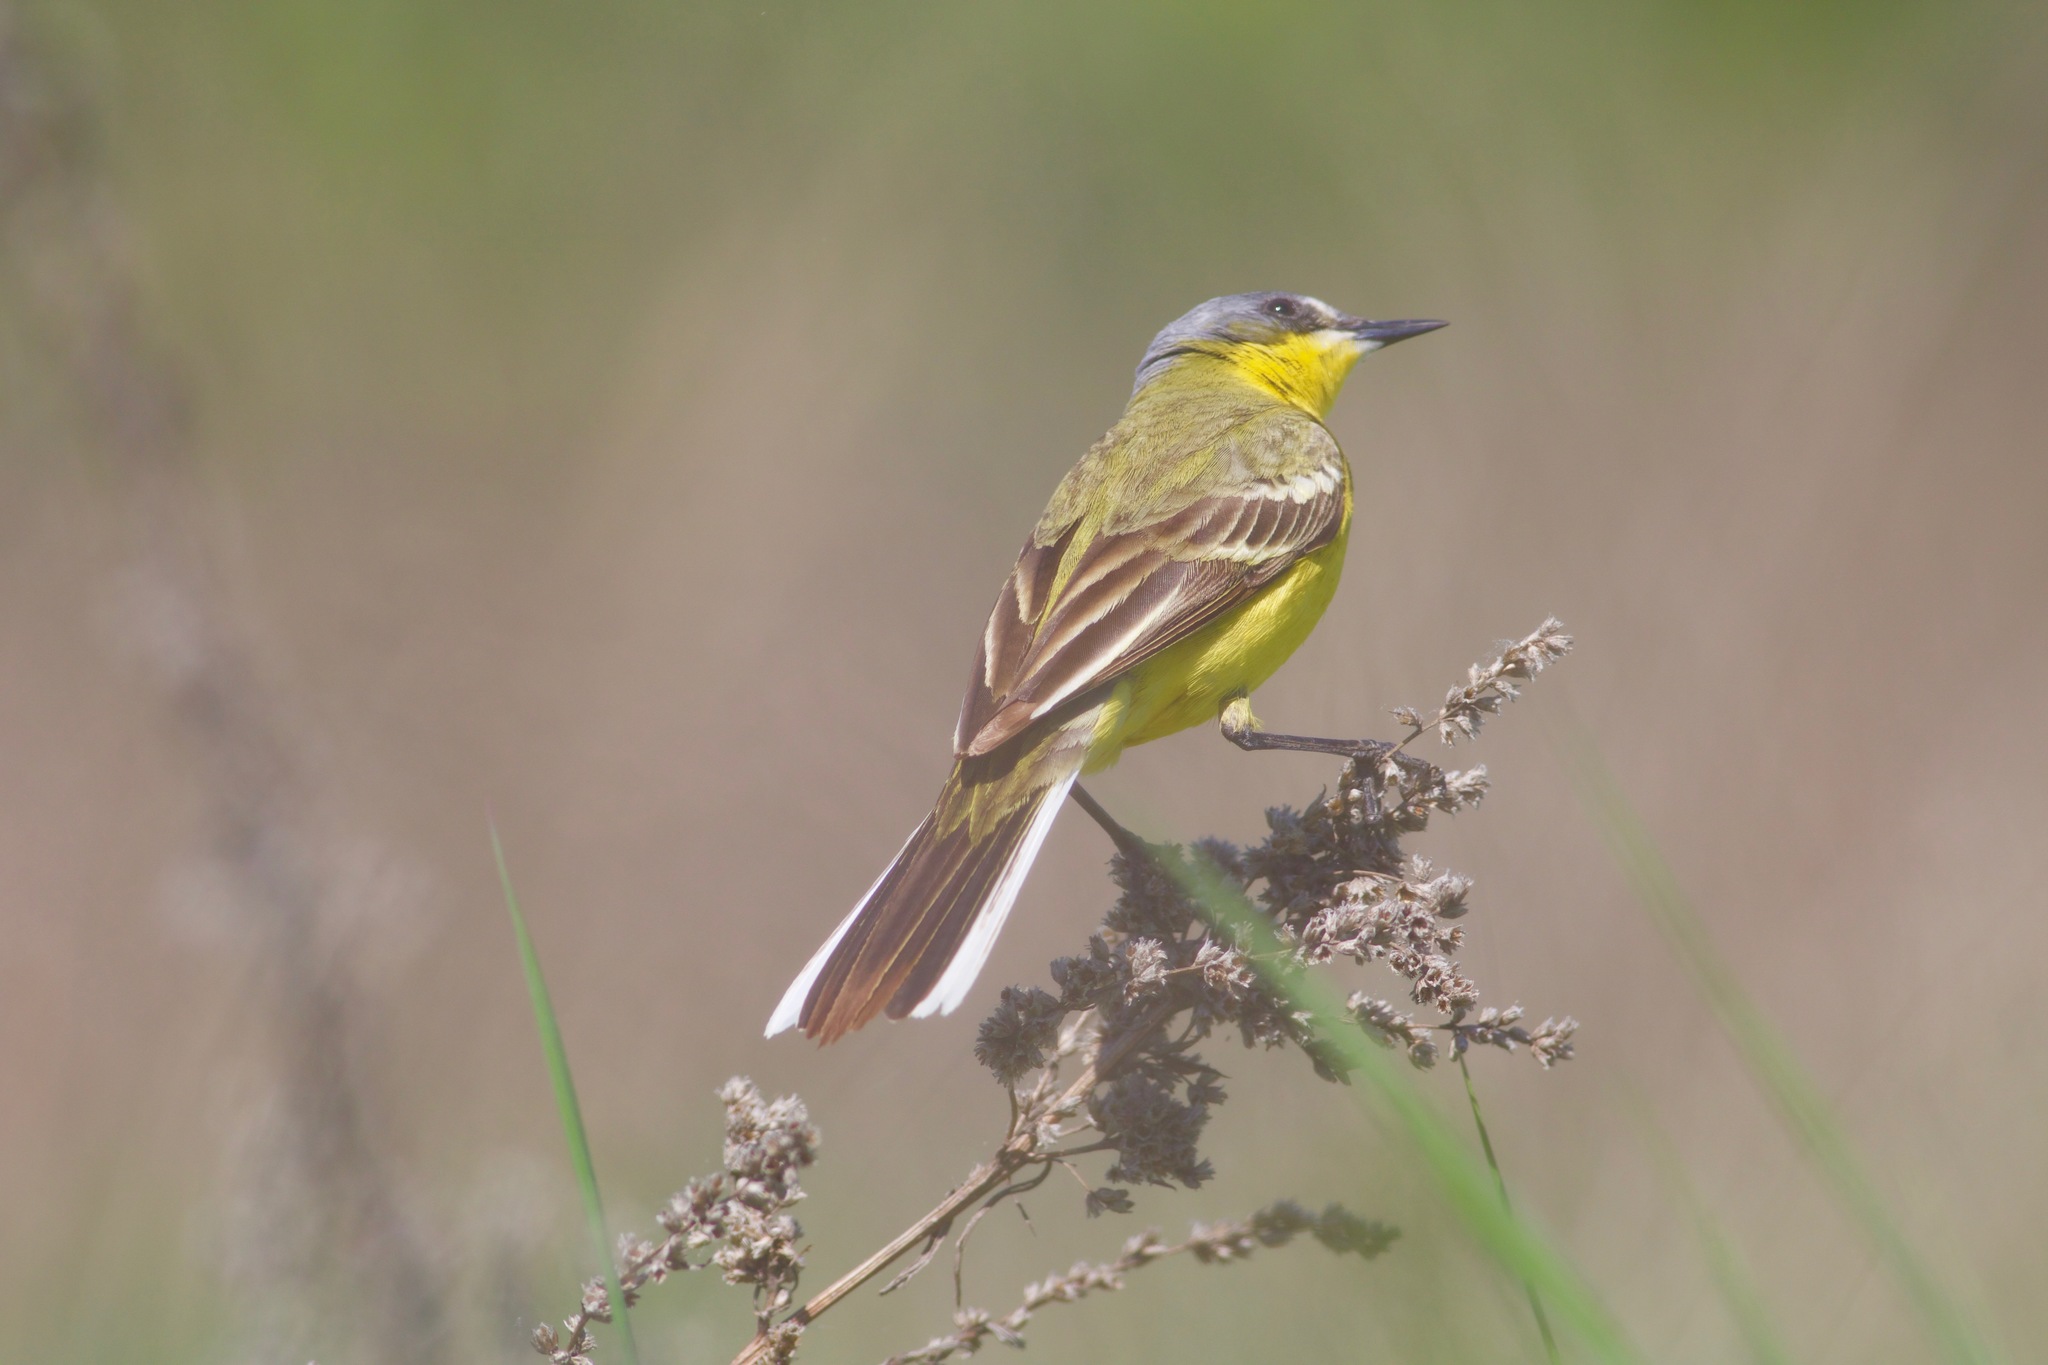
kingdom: Animalia
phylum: Chordata
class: Aves
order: Passeriformes
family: Motacillidae
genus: Motacilla
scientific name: Motacilla flava
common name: Western yellow wagtail
